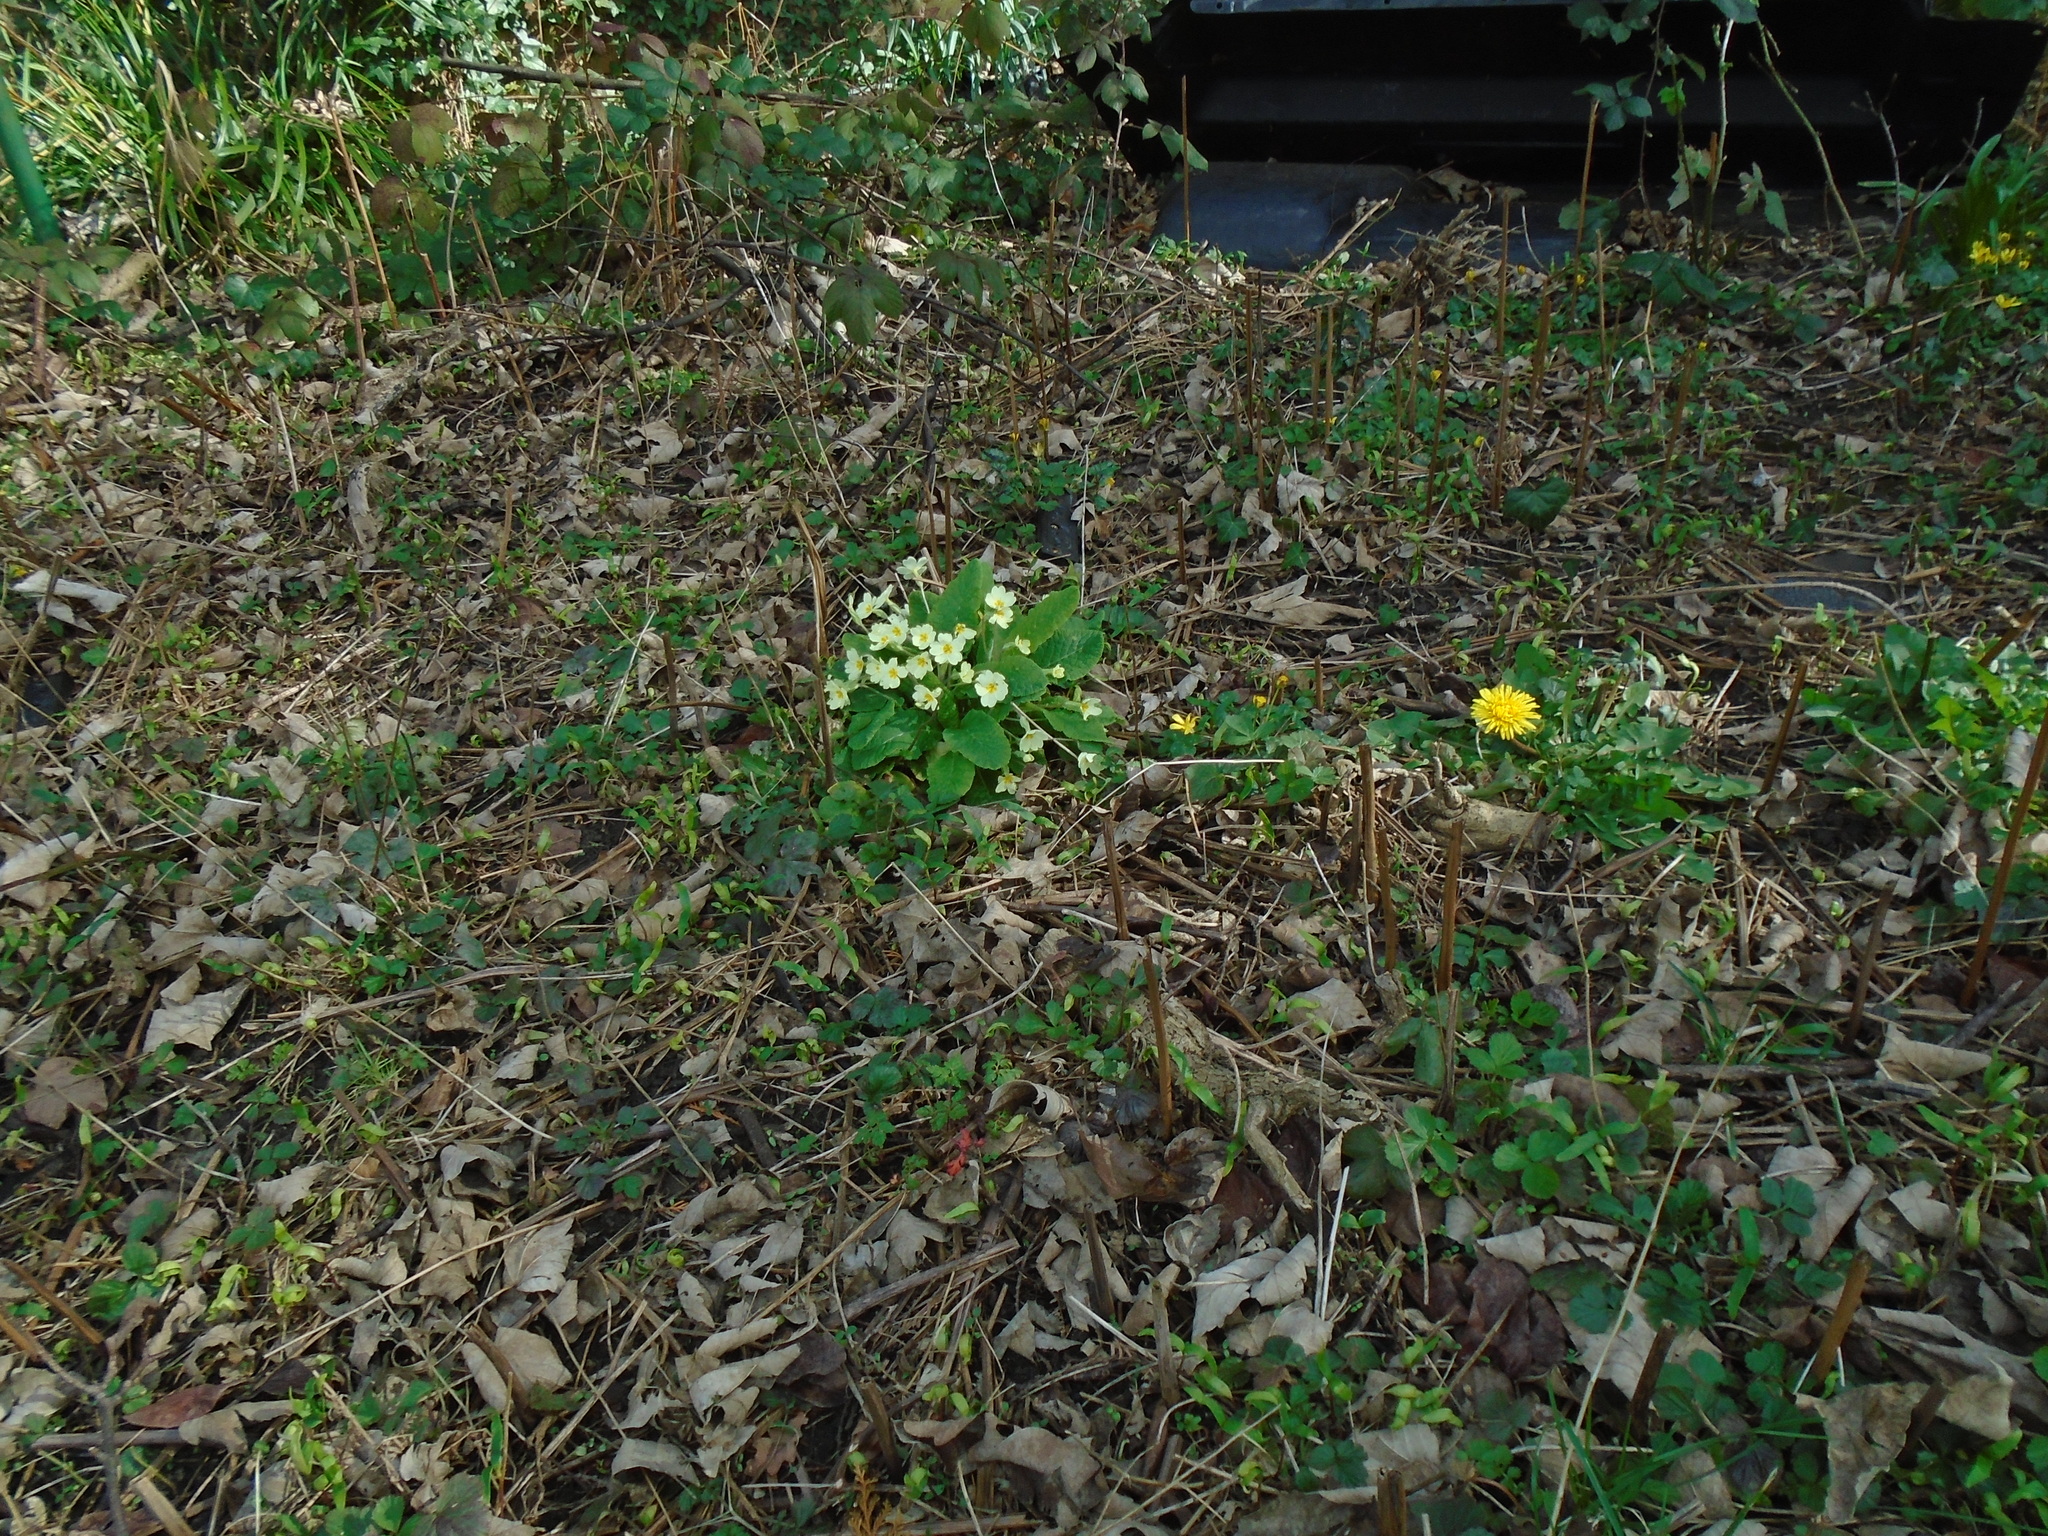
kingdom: Plantae
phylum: Tracheophyta
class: Magnoliopsida
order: Ericales
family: Primulaceae
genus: Primula
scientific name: Primula vulgaris
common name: Primrose
